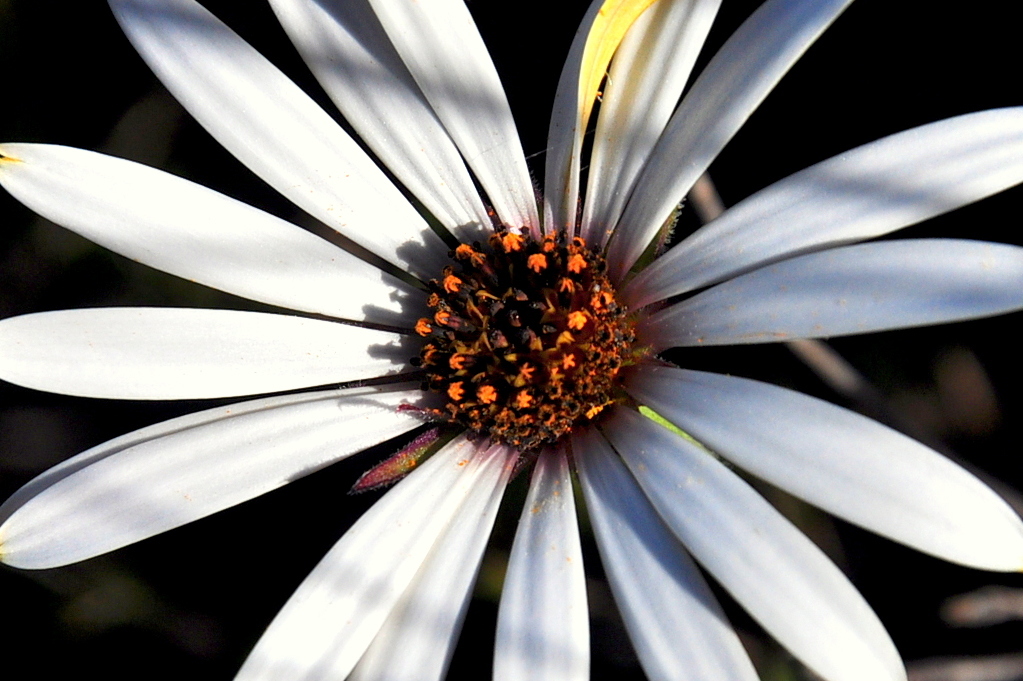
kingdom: Plantae
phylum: Tracheophyta
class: Magnoliopsida
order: Asterales
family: Asteraceae
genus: Dimorphotheca
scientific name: Dimorphotheca nudicaulis
